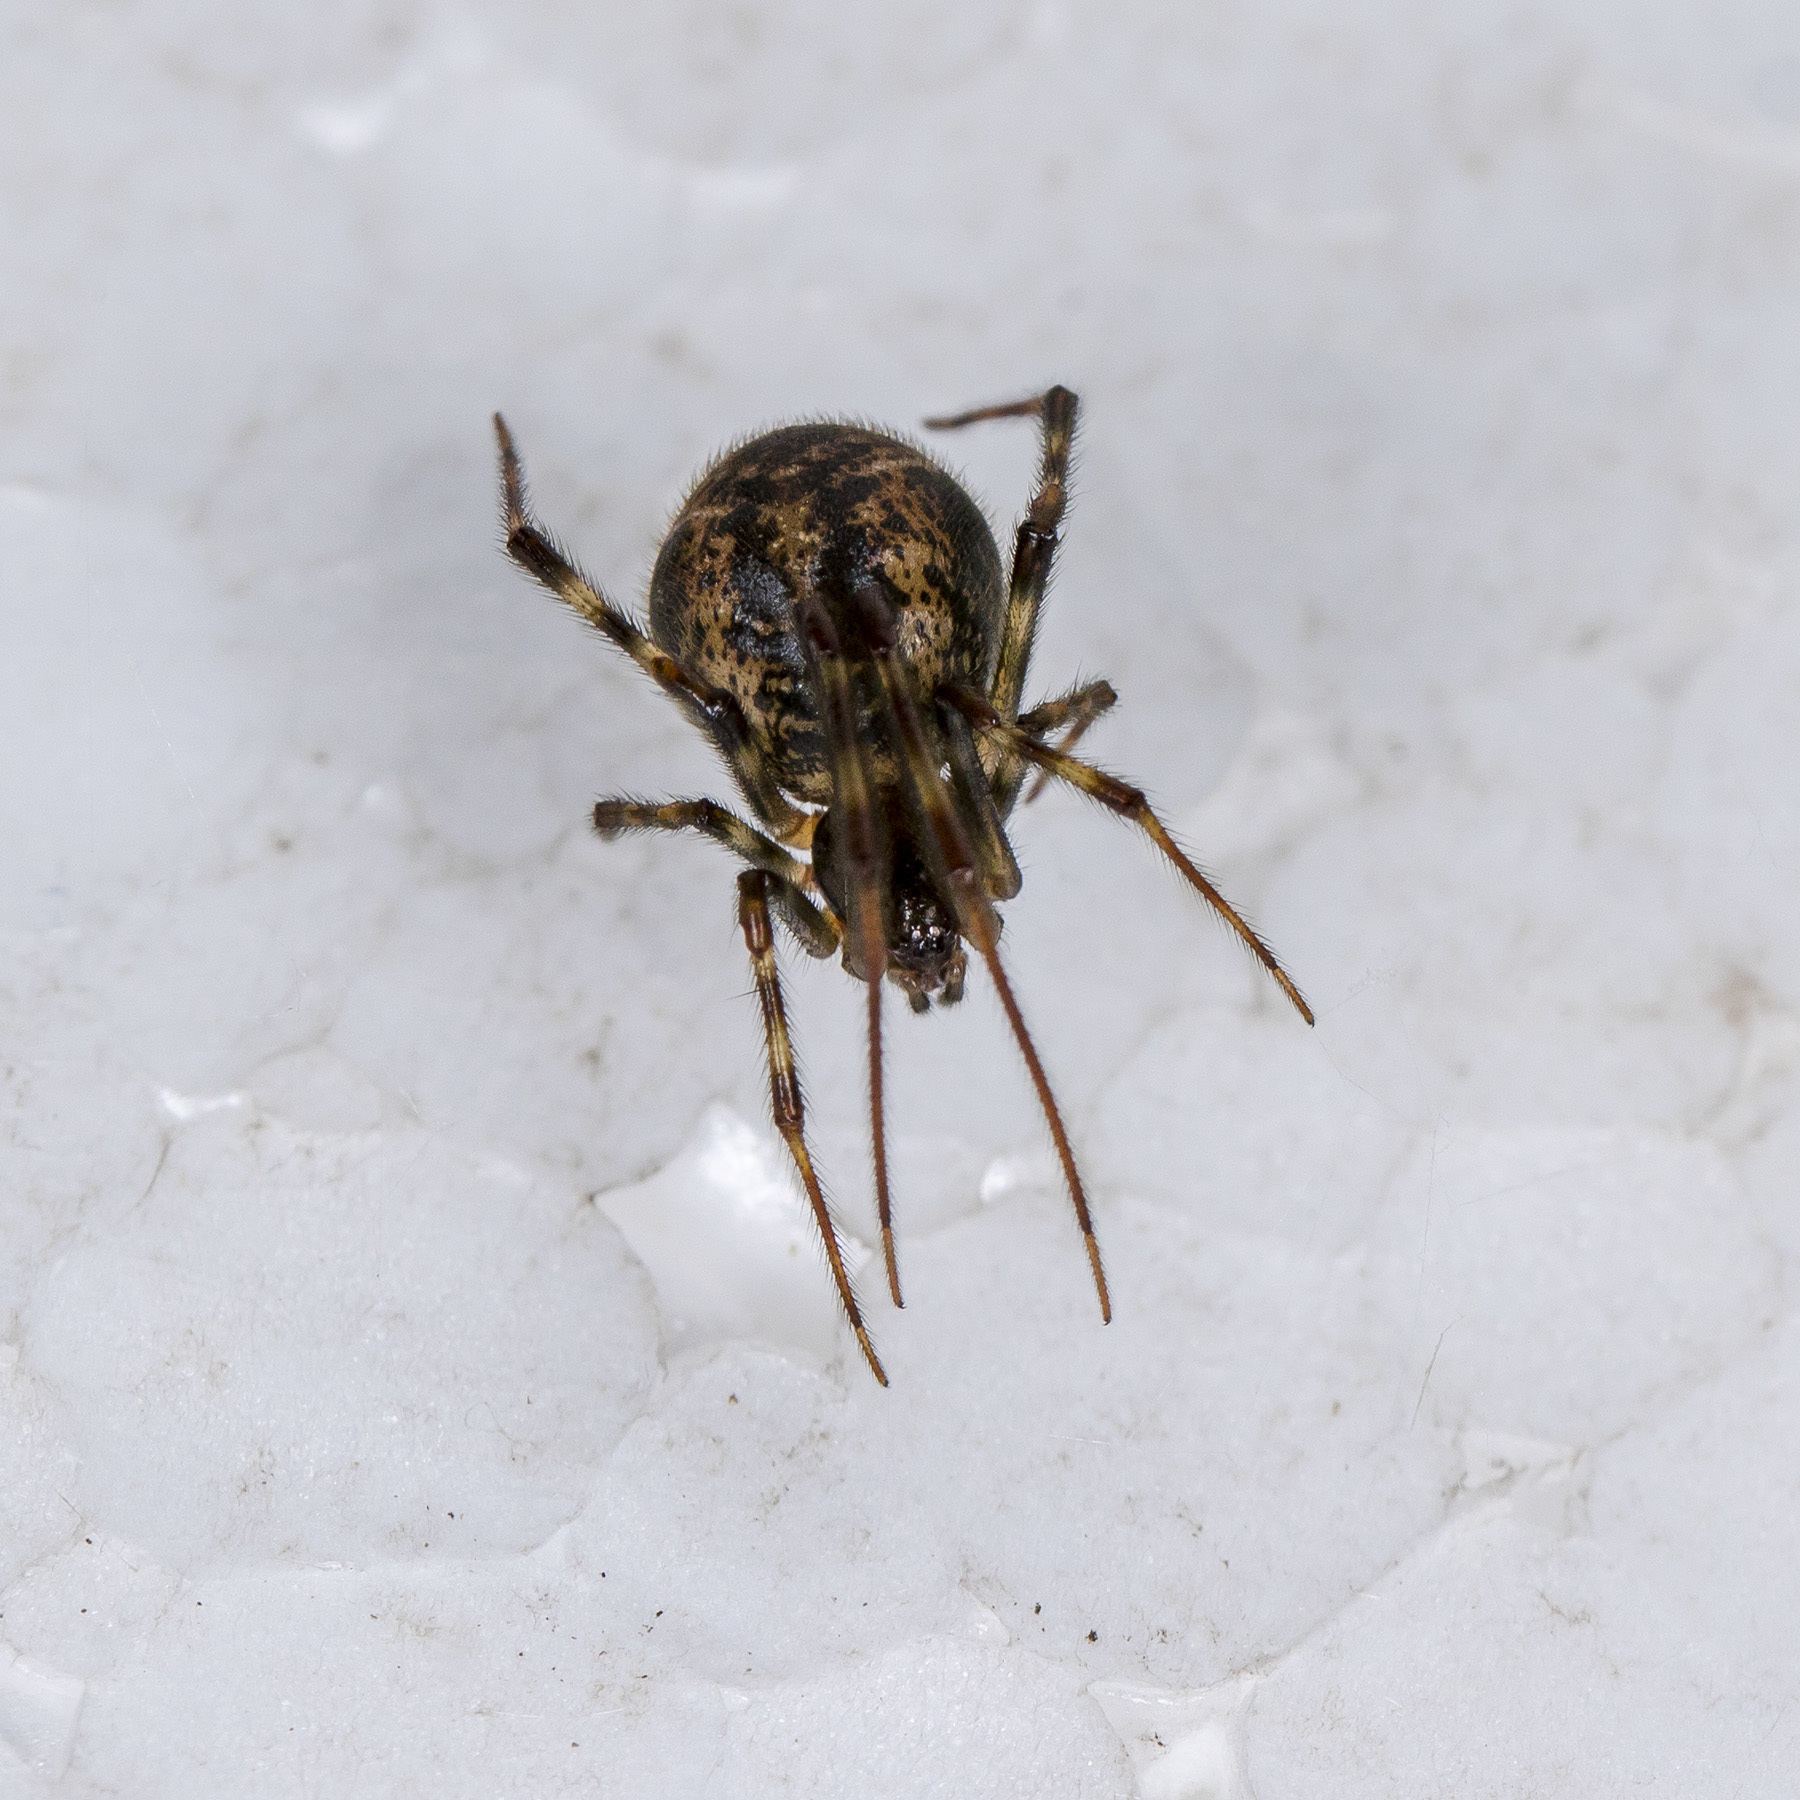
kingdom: Animalia
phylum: Arthropoda
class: Arachnida
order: Araneae
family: Theridiidae
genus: Parasteatoda
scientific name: Parasteatoda tepidariorum
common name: Common house spider
